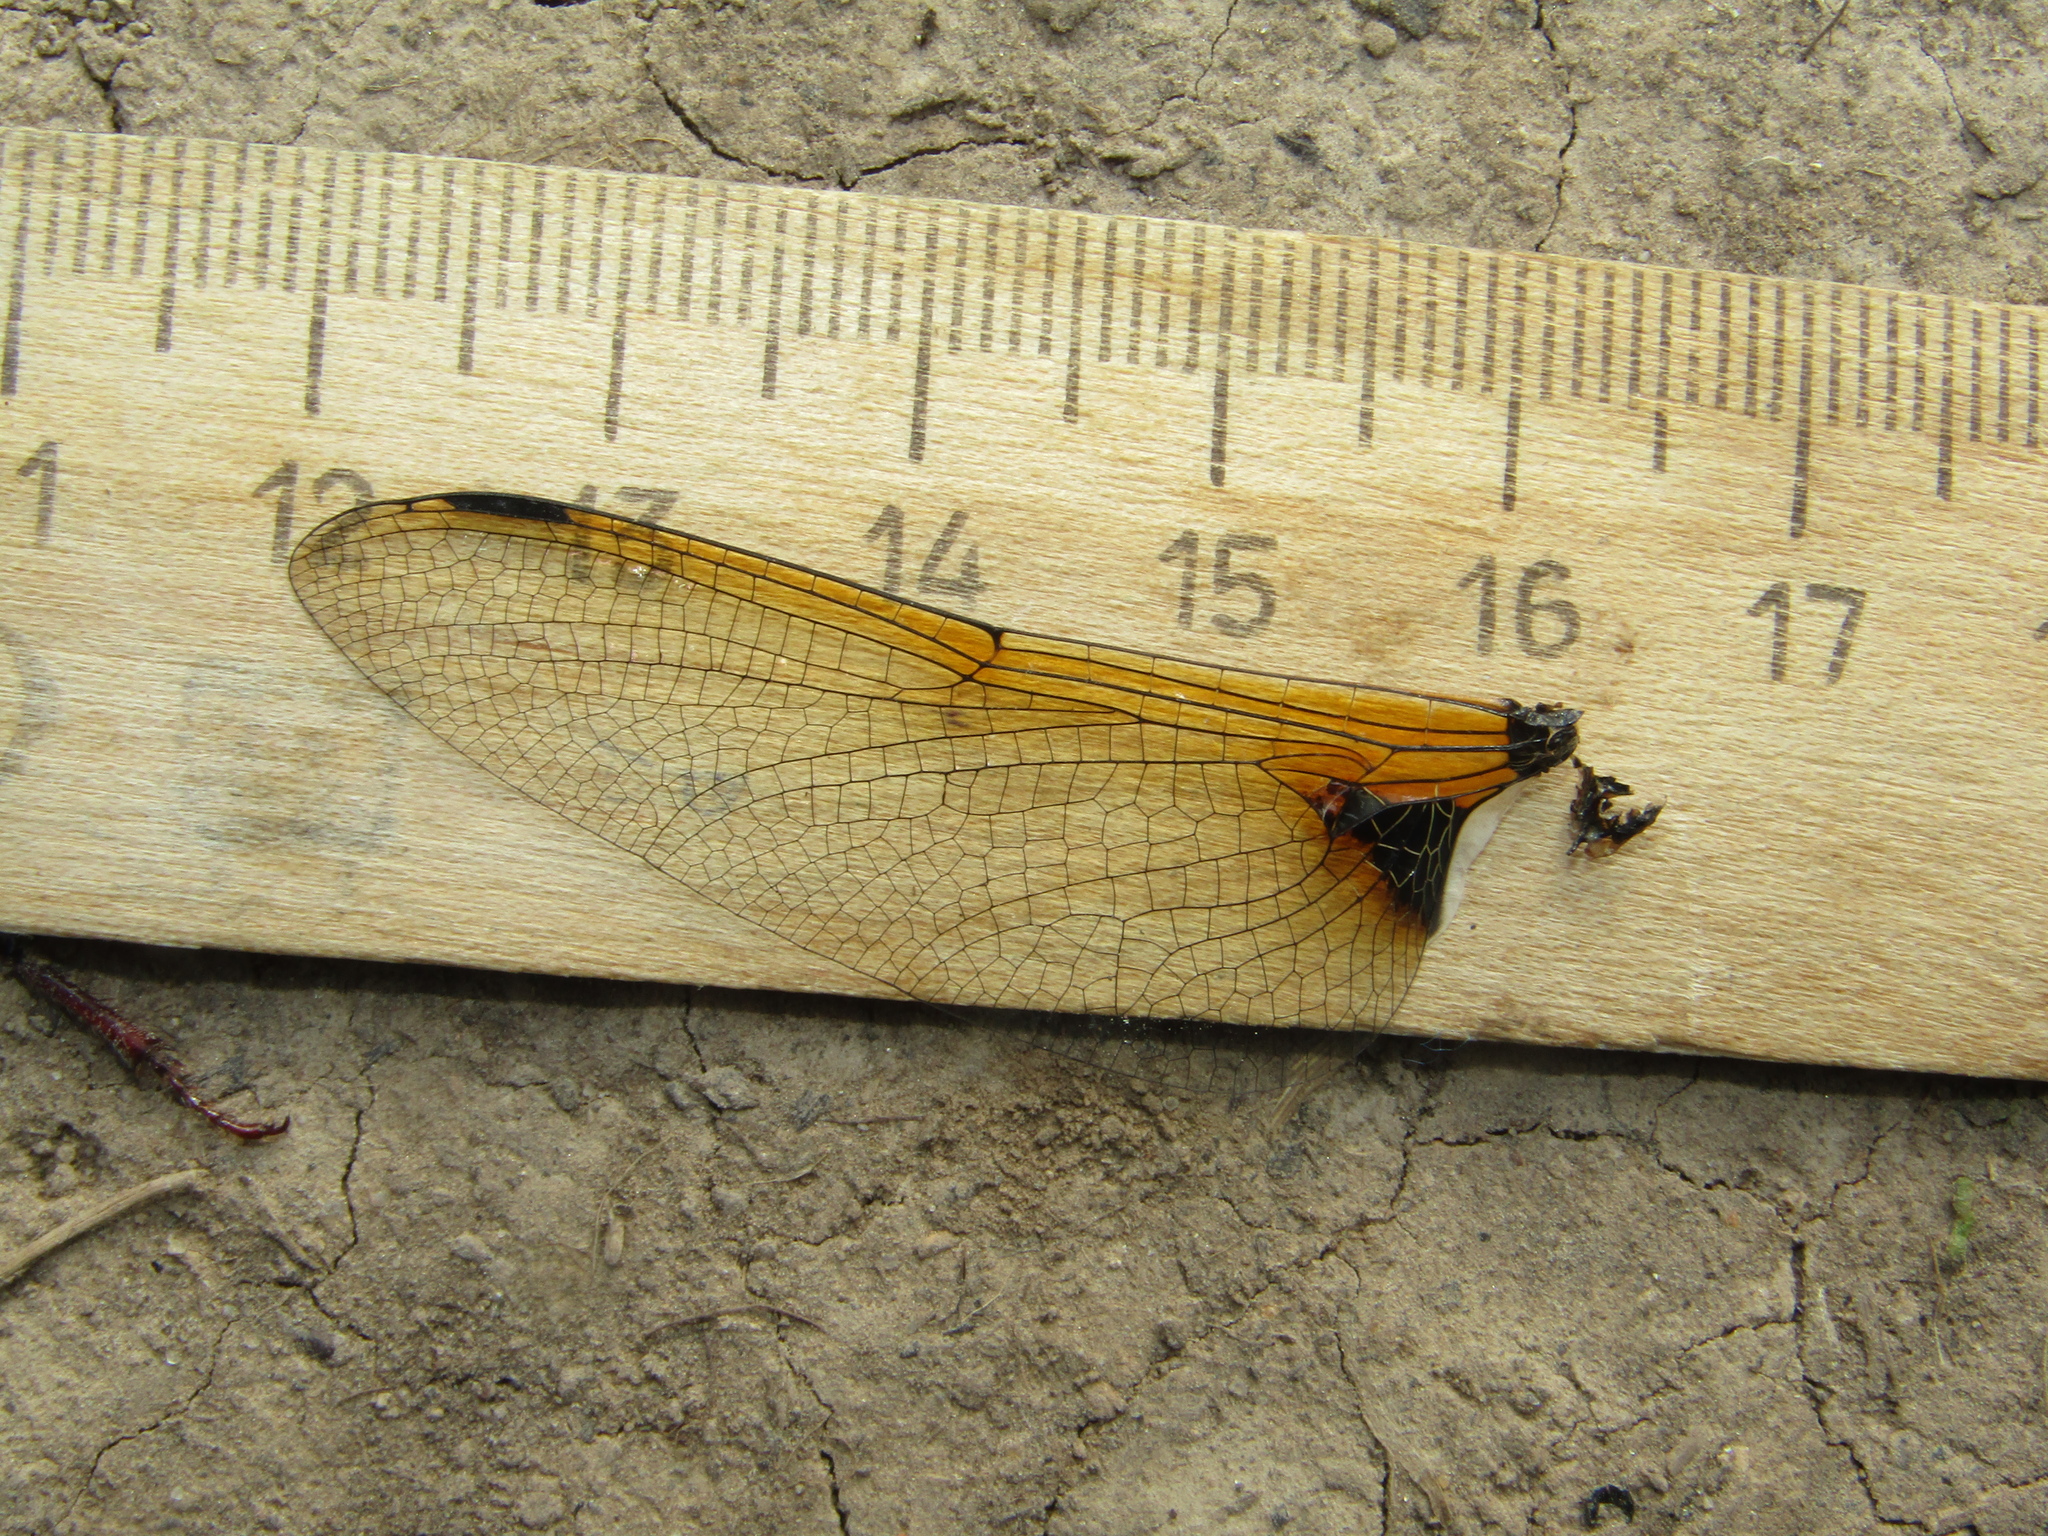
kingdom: Animalia
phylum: Arthropoda
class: Insecta
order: Odonata
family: Corduliidae
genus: Epitheca
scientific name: Epitheca bimaculata
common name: Eurasian baskettail
